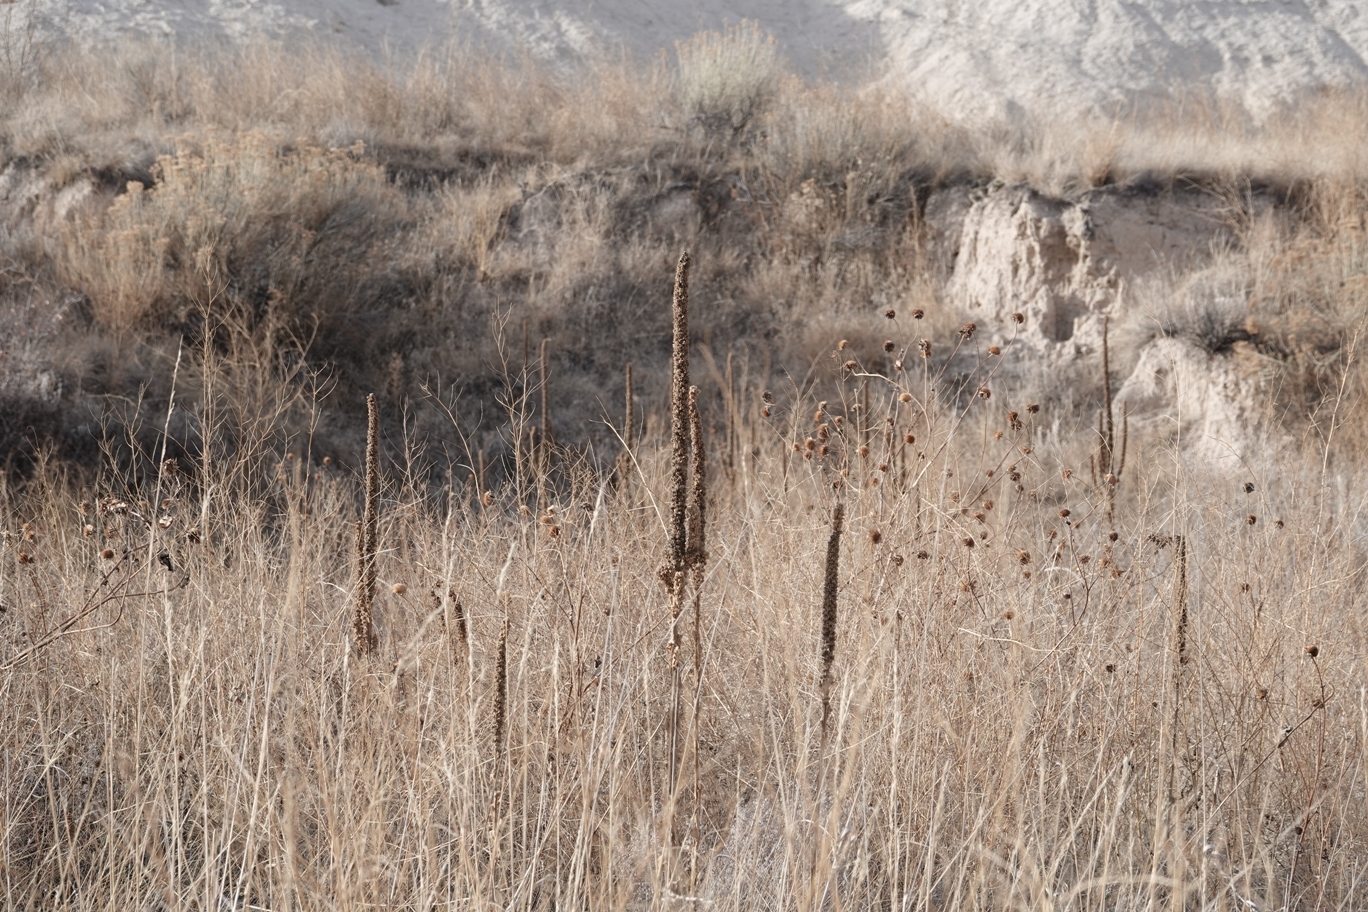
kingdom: Plantae
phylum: Tracheophyta
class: Magnoliopsida
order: Lamiales
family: Scrophulariaceae
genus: Verbascum
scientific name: Verbascum thapsus
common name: Common mullein
